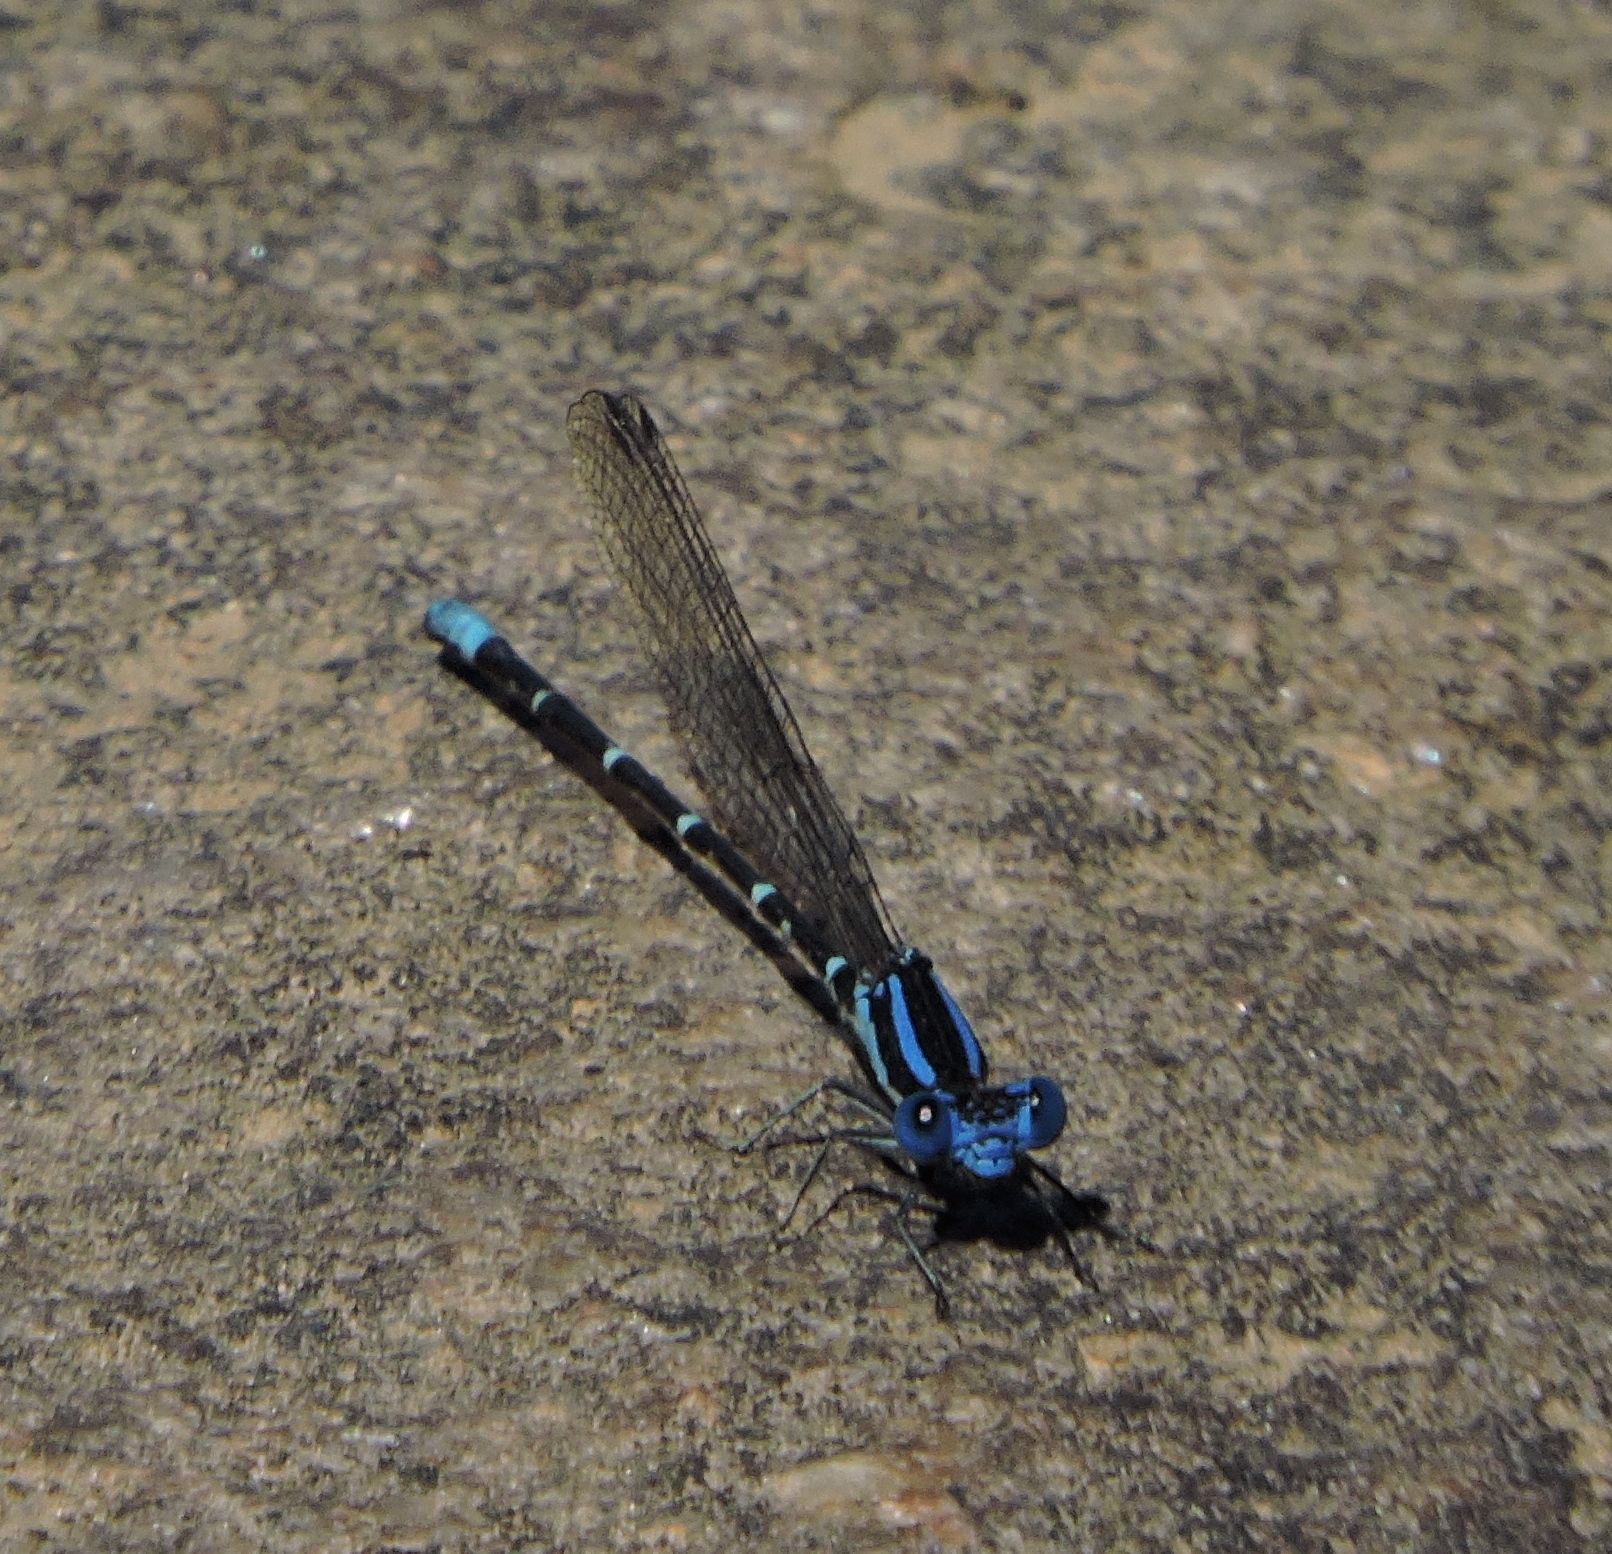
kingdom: Animalia
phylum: Arthropoda
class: Insecta
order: Odonata
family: Coenagrionidae
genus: Argia
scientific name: Argia sedula
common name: Blue-ringed dancer
